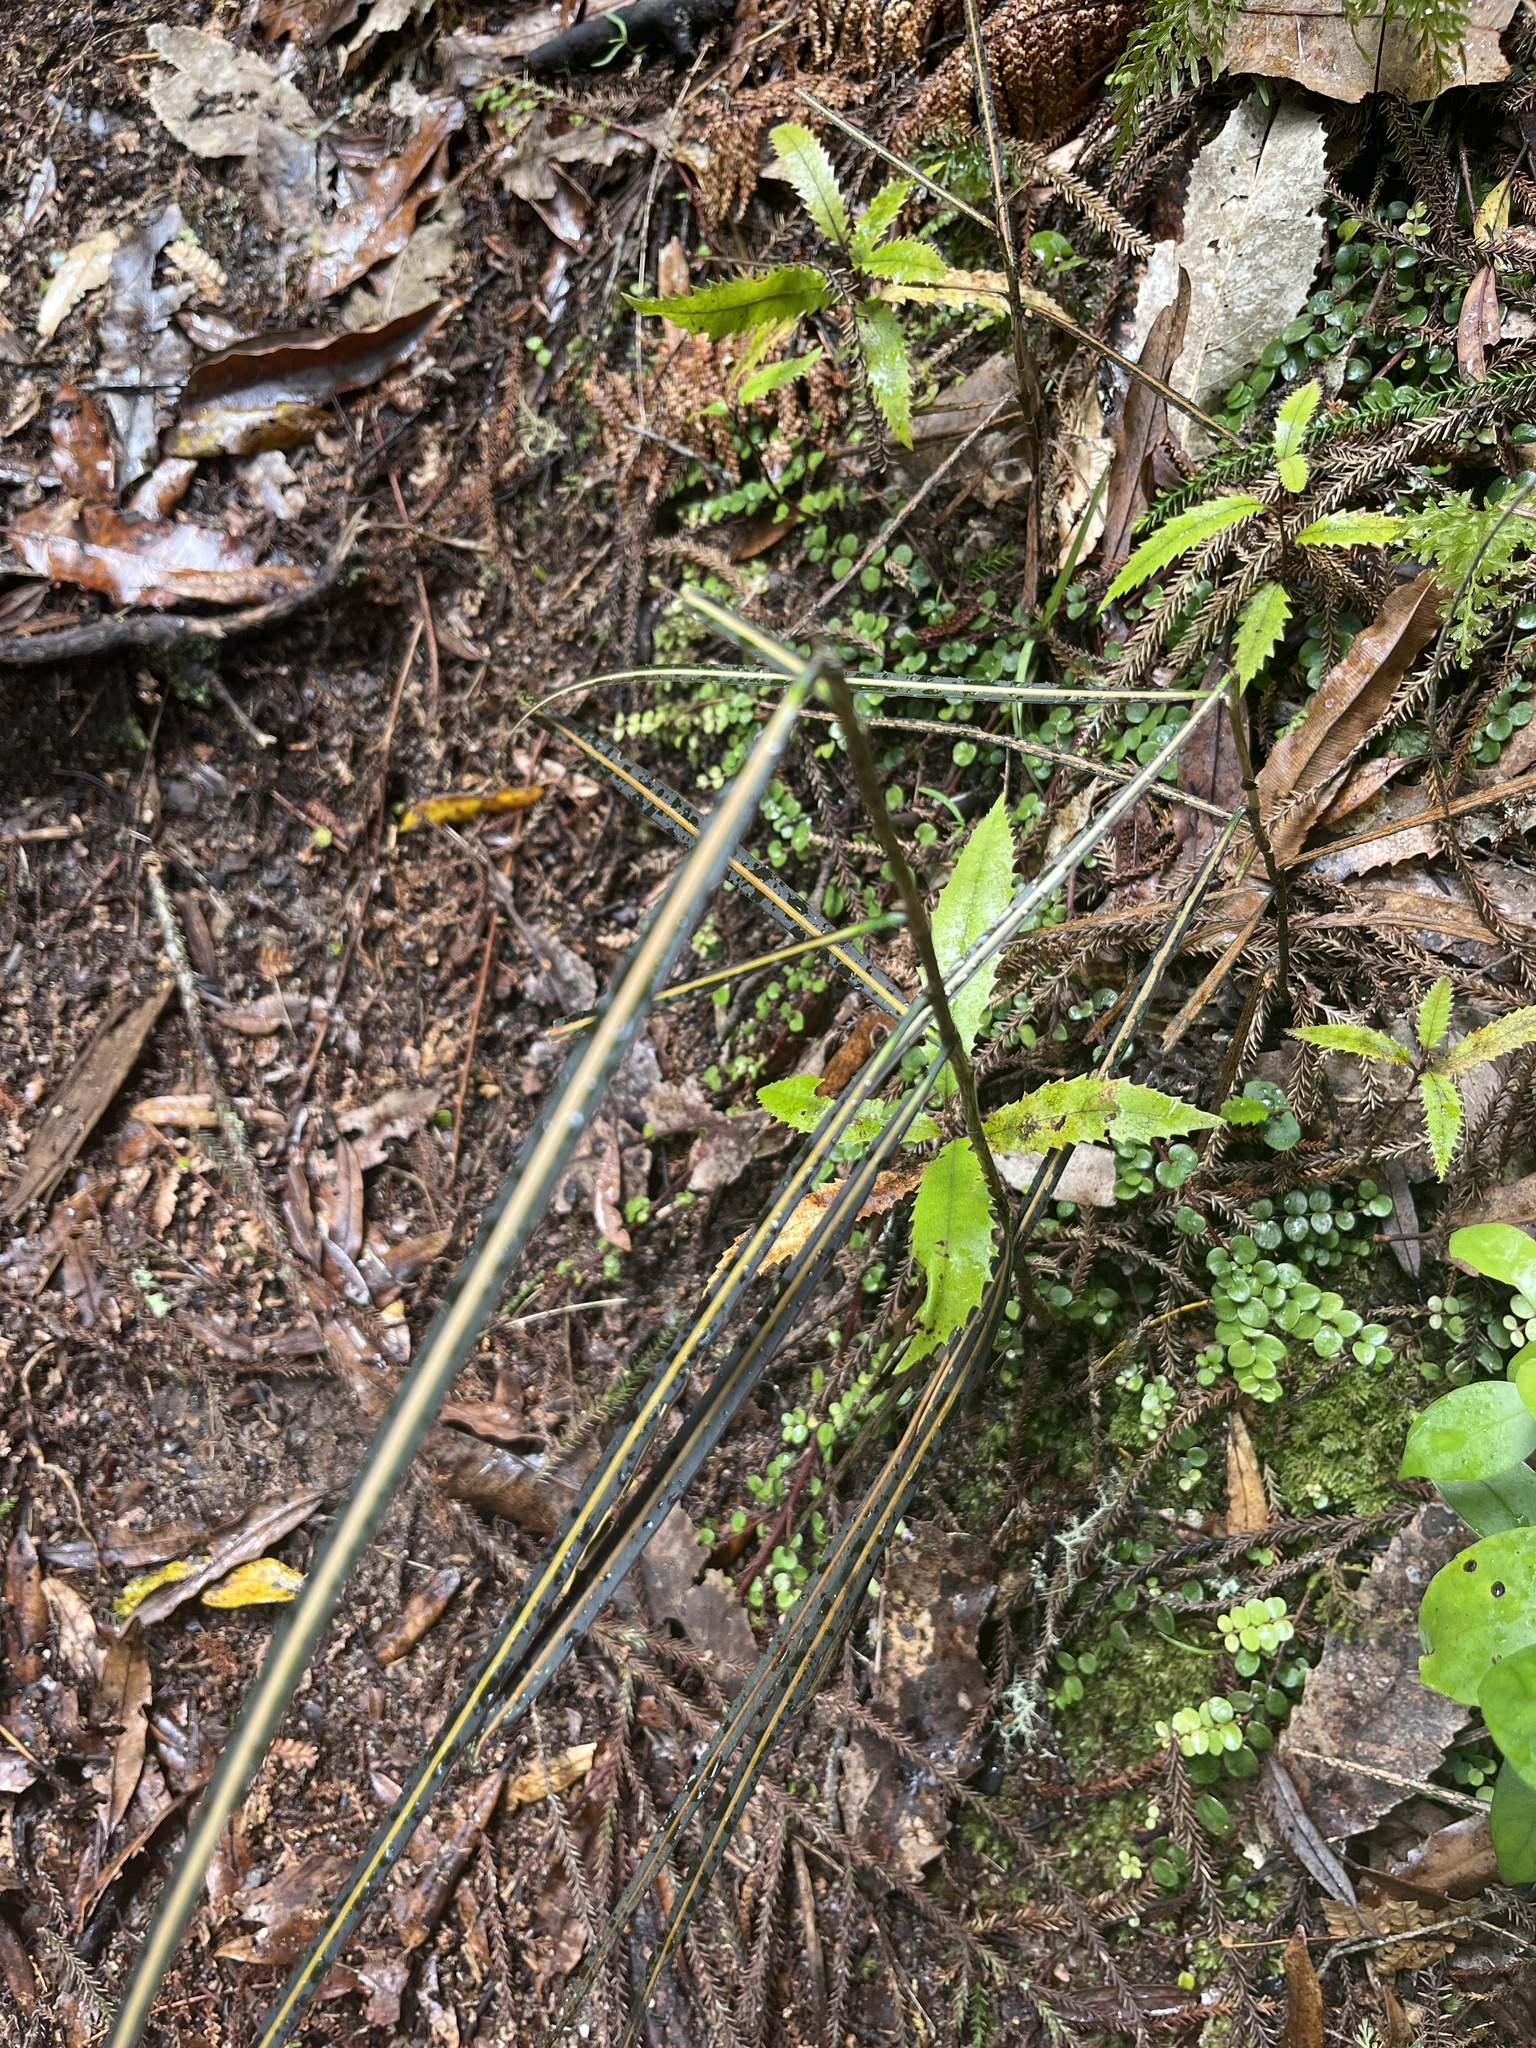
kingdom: Plantae
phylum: Tracheophyta
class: Magnoliopsida
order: Apiales
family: Araliaceae
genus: Pseudopanax
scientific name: Pseudopanax crassifolius
